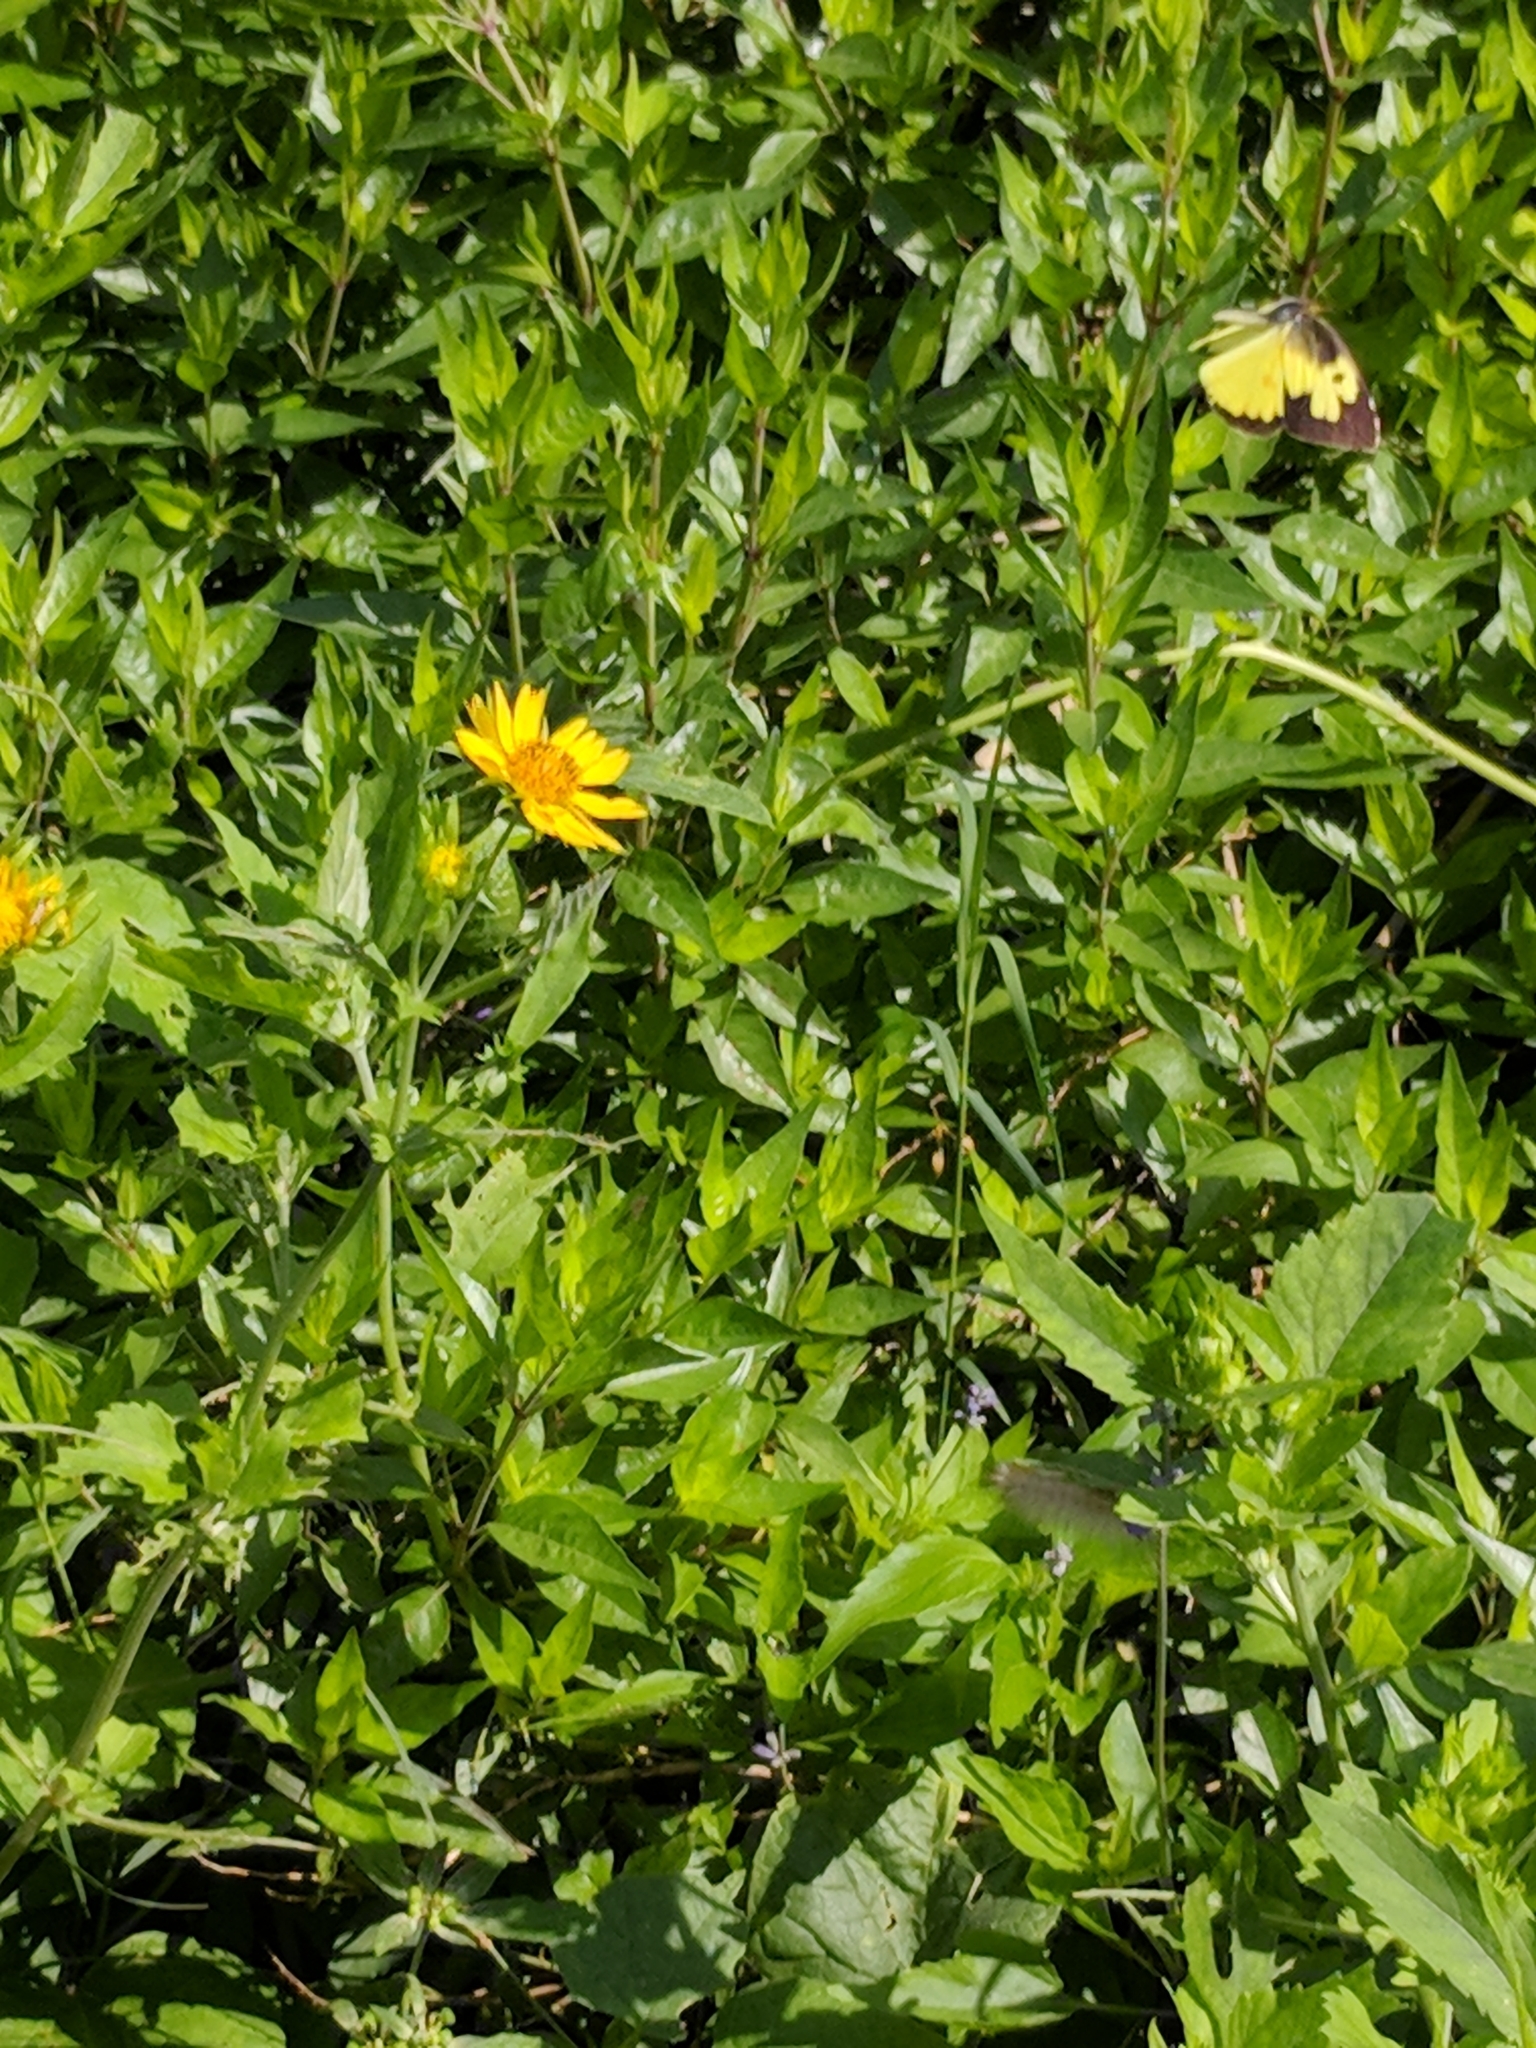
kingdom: Animalia
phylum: Arthropoda
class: Insecta
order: Lepidoptera
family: Pieridae
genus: Zerene
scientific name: Zerene cesonia
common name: Southern dogface
